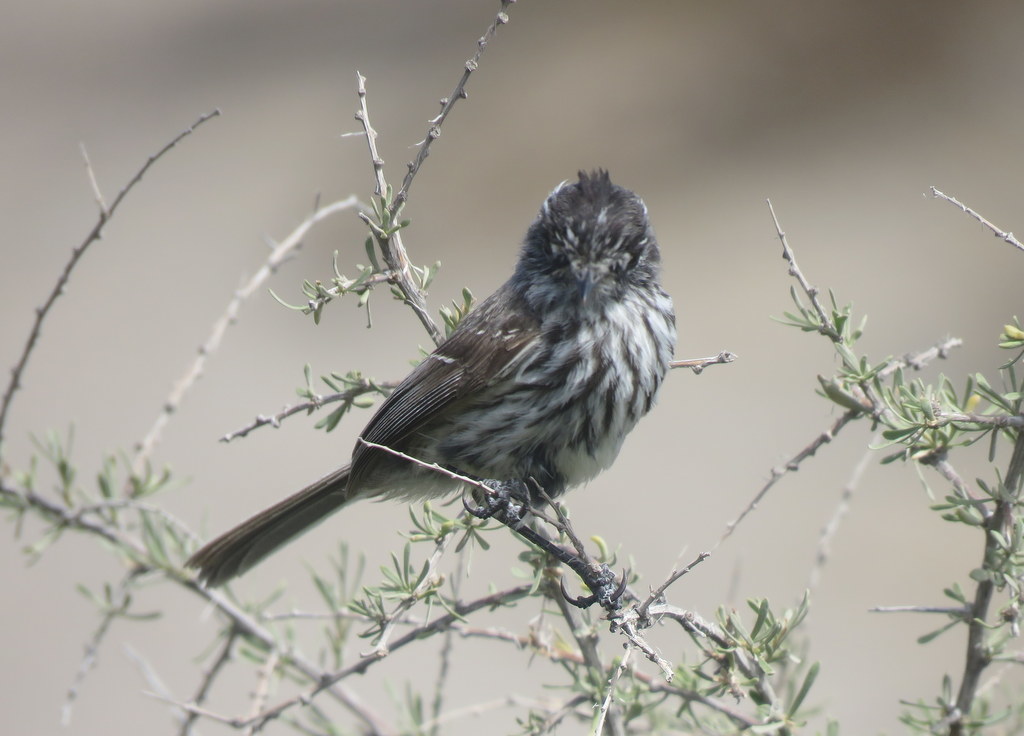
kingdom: Animalia
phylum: Chordata
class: Aves
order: Passeriformes
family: Tyrannidae
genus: Anairetes
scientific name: Anairetes parulus
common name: Tufted tit-tyrant
